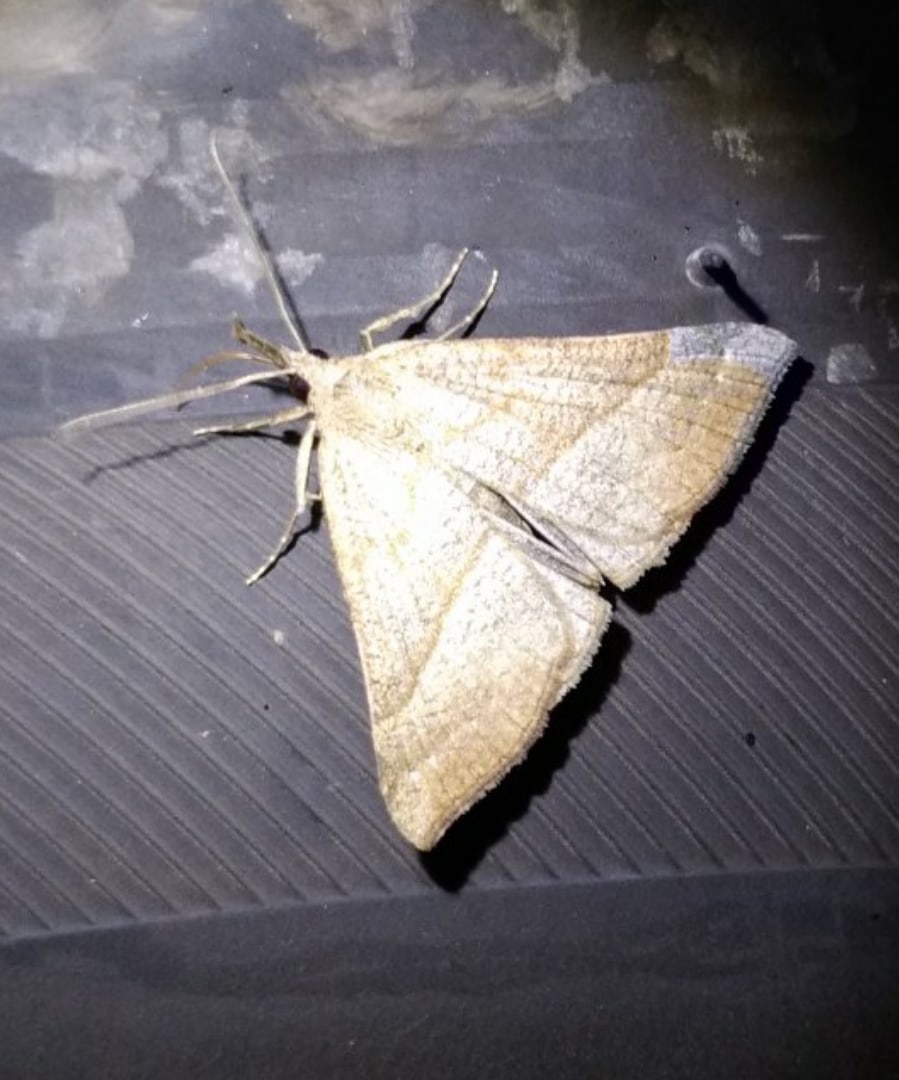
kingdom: Animalia
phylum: Arthropoda
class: Insecta
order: Lepidoptera
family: Erebidae
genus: Hypena
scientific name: Hypena proboscidalis
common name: Snout
